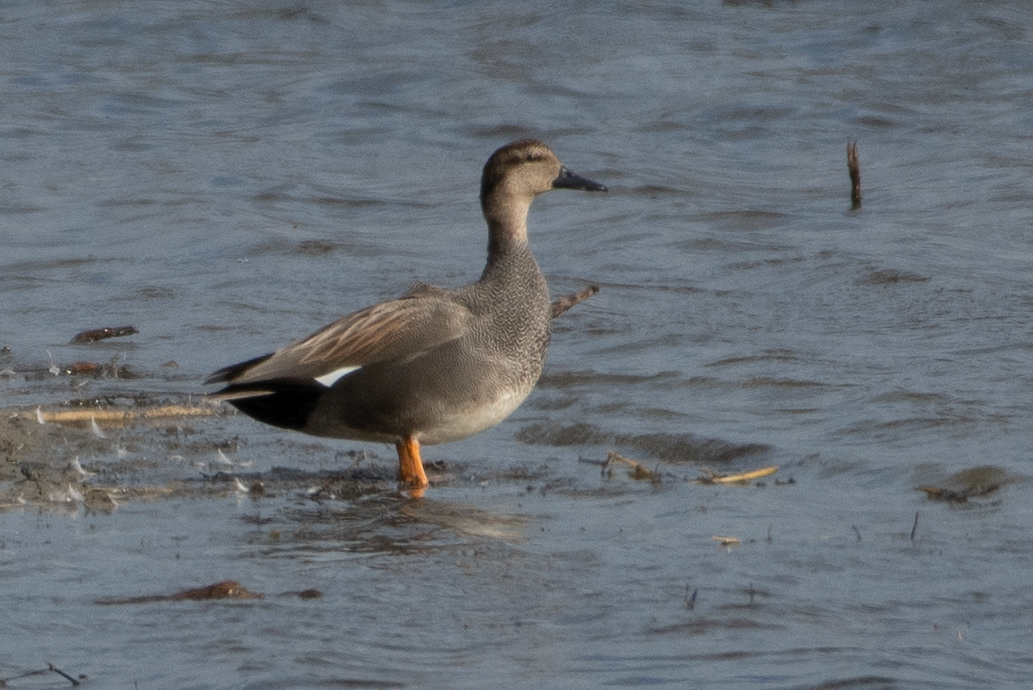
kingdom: Animalia
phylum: Chordata
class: Aves
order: Anseriformes
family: Anatidae
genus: Mareca
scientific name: Mareca strepera
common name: Gadwall
